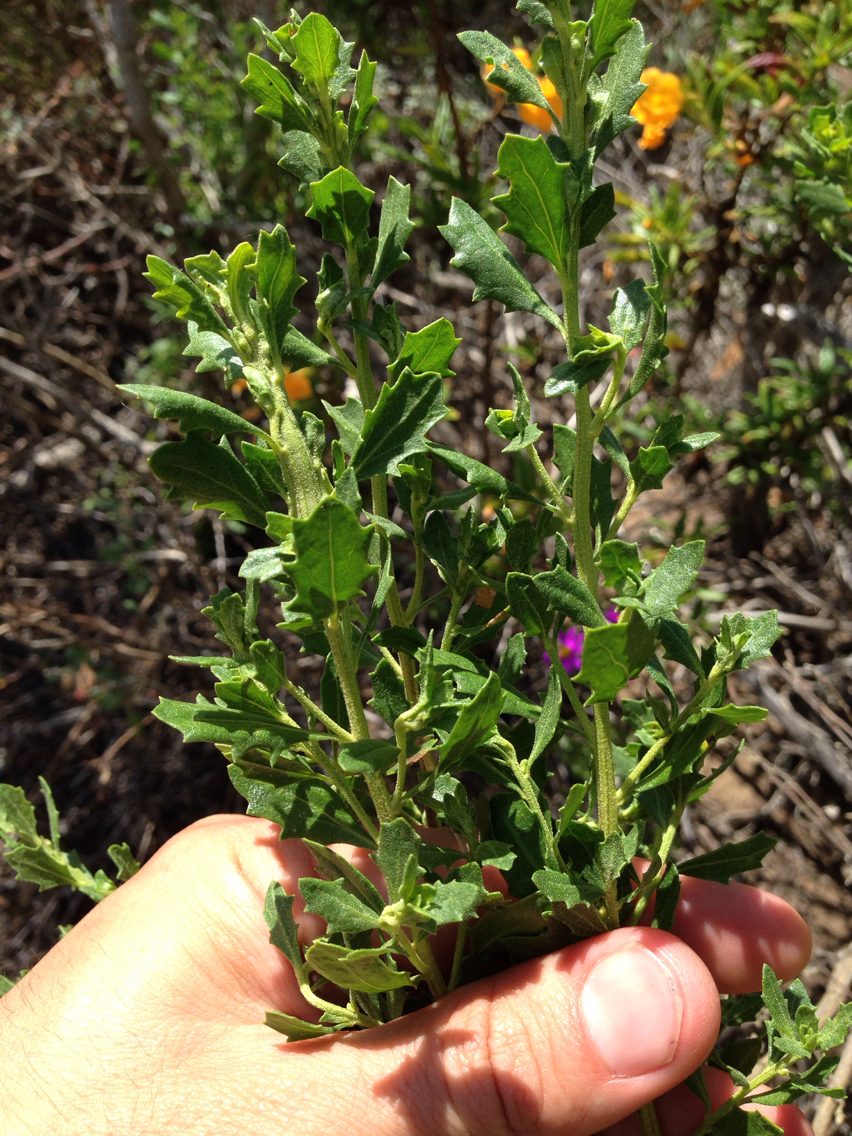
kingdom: Plantae
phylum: Tracheophyta
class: Magnoliopsida
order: Asterales
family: Asteraceae
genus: Baccharis
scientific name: Baccharis pilularis
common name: Coyotebrush
